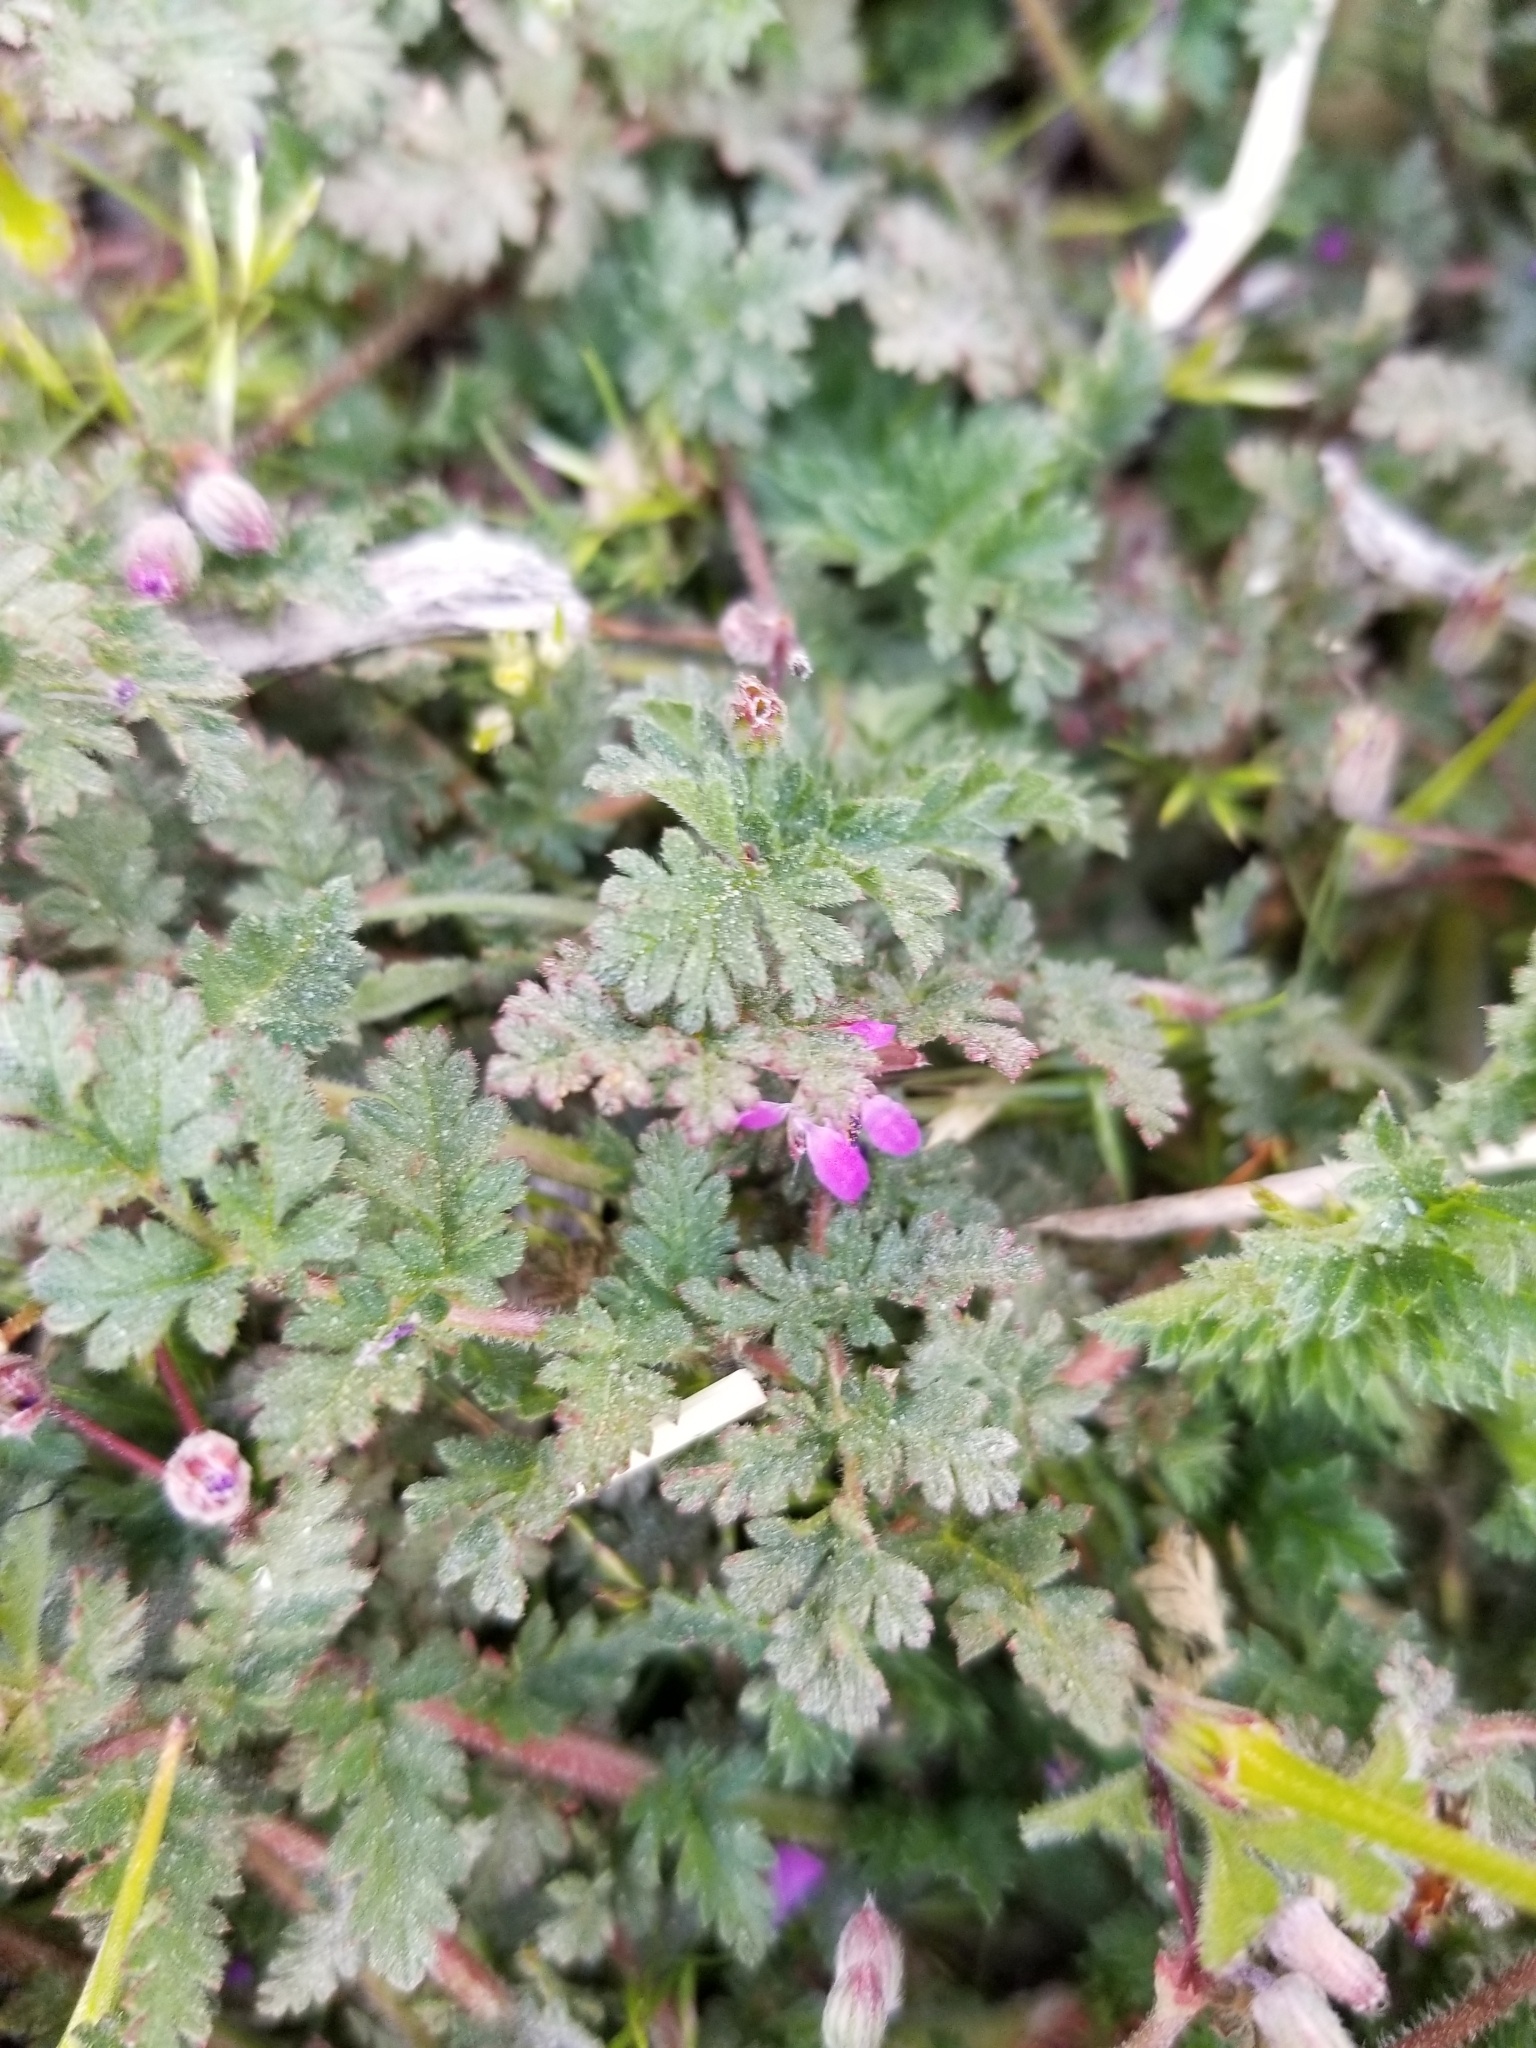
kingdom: Plantae
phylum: Tracheophyta
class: Magnoliopsida
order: Geraniales
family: Geraniaceae
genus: Erodium
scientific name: Erodium cicutarium
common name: Common stork's-bill
